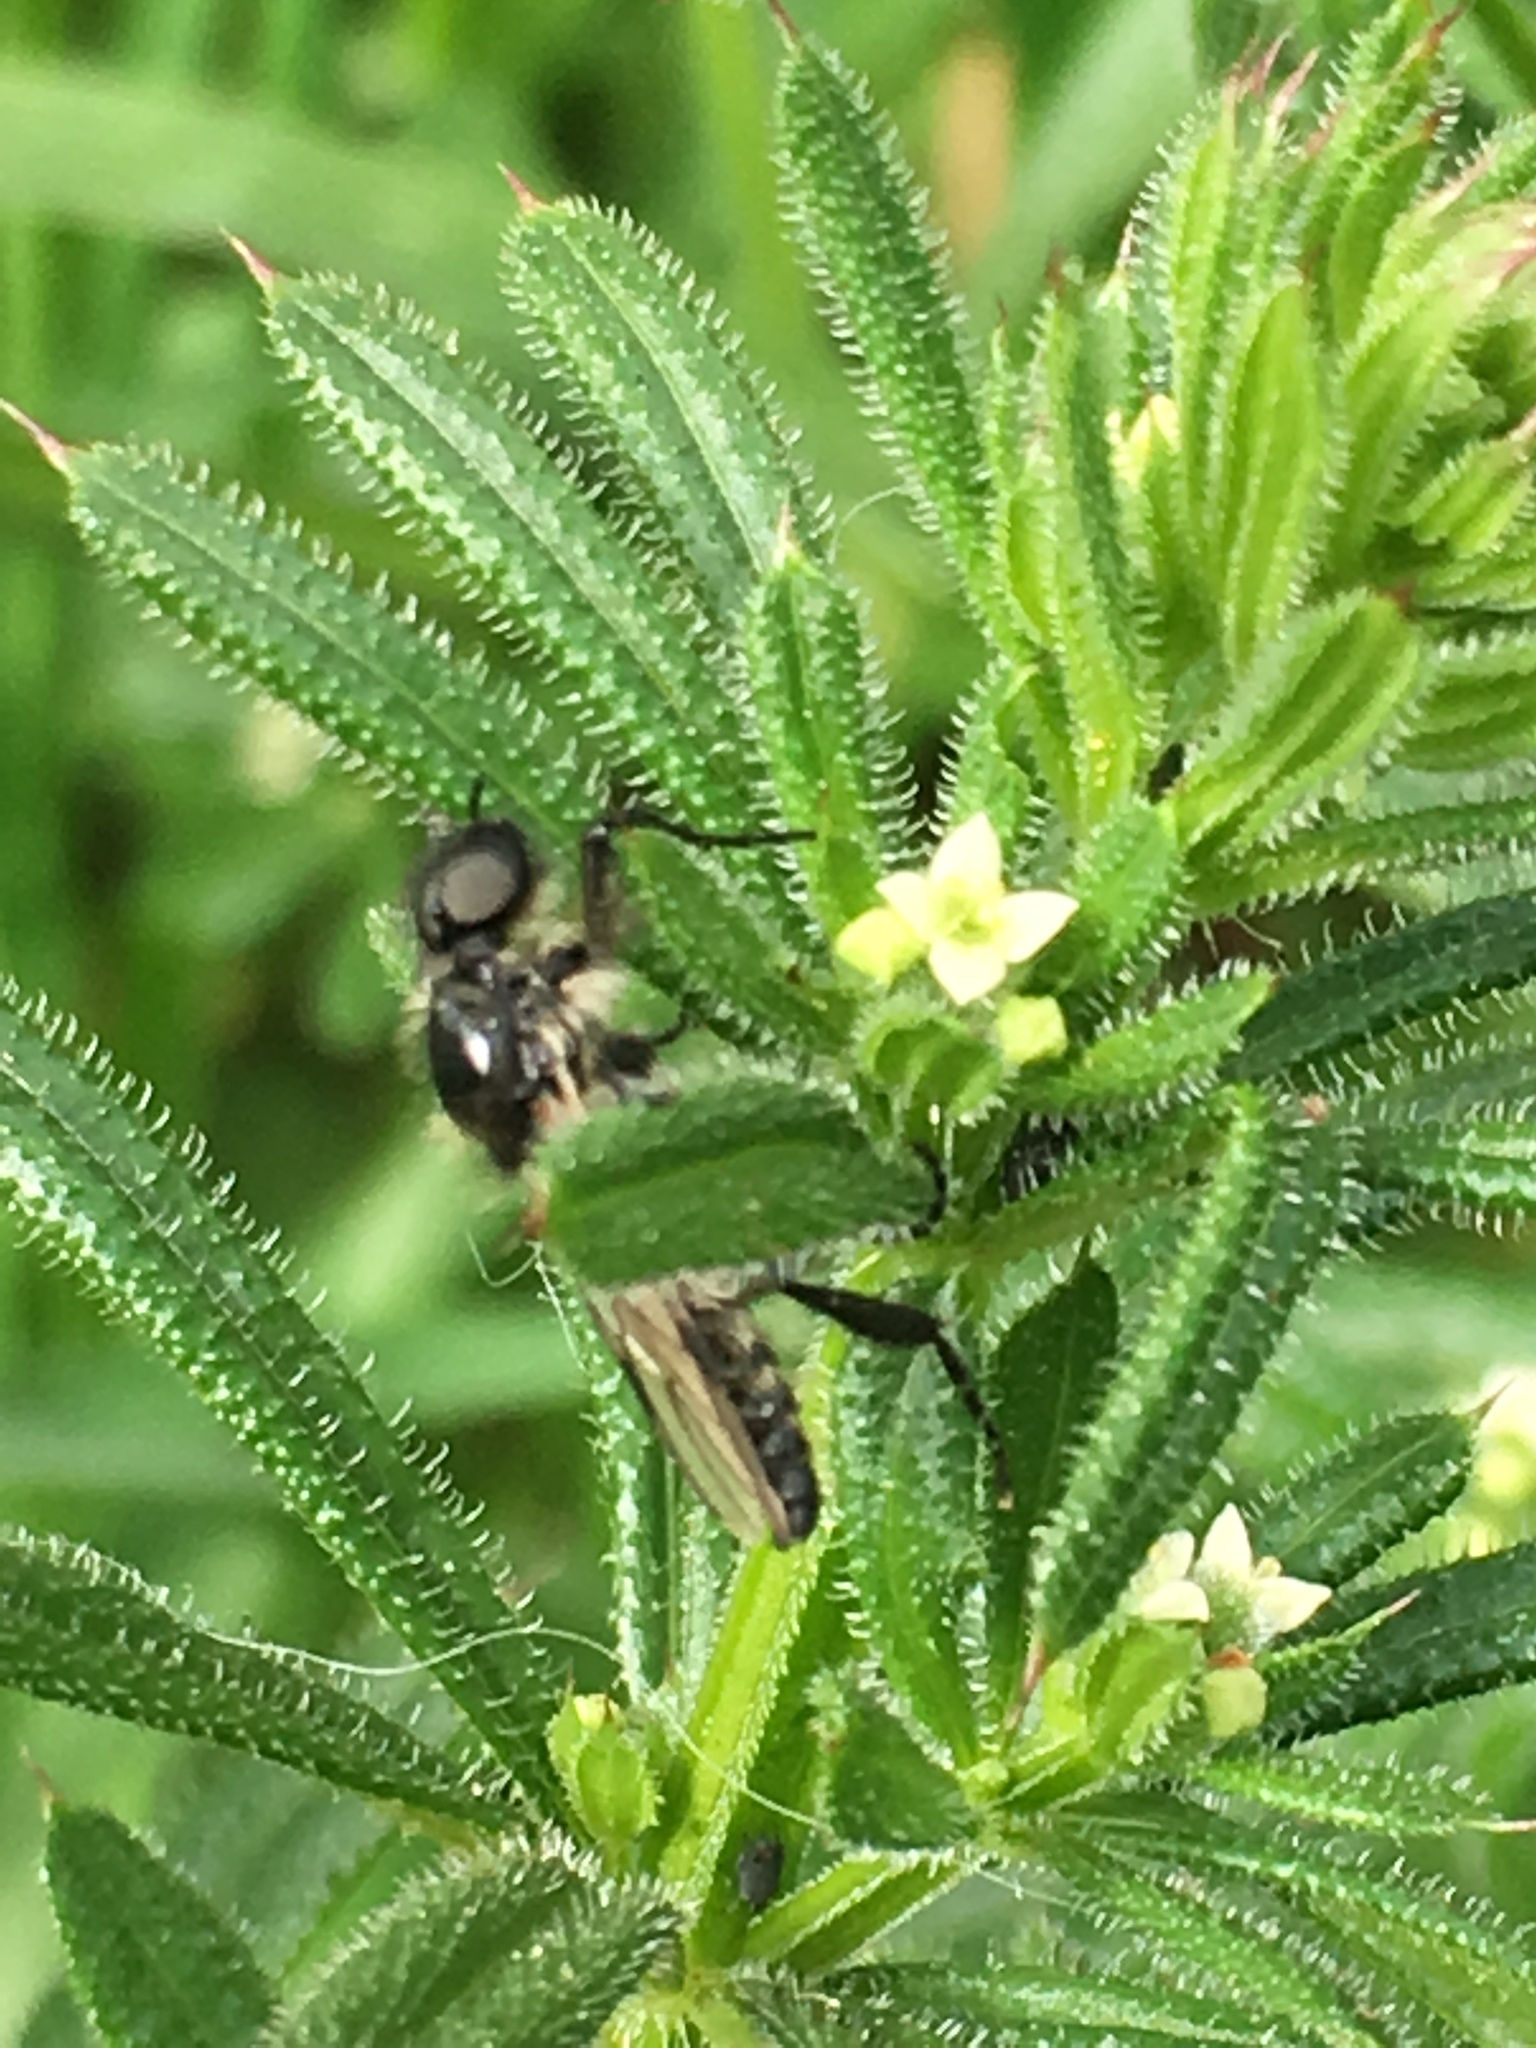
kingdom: Animalia
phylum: Arthropoda
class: Insecta
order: Diptera
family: Bibionidae
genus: Bibio
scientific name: Bibio albipennis
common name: White-winged march fly
